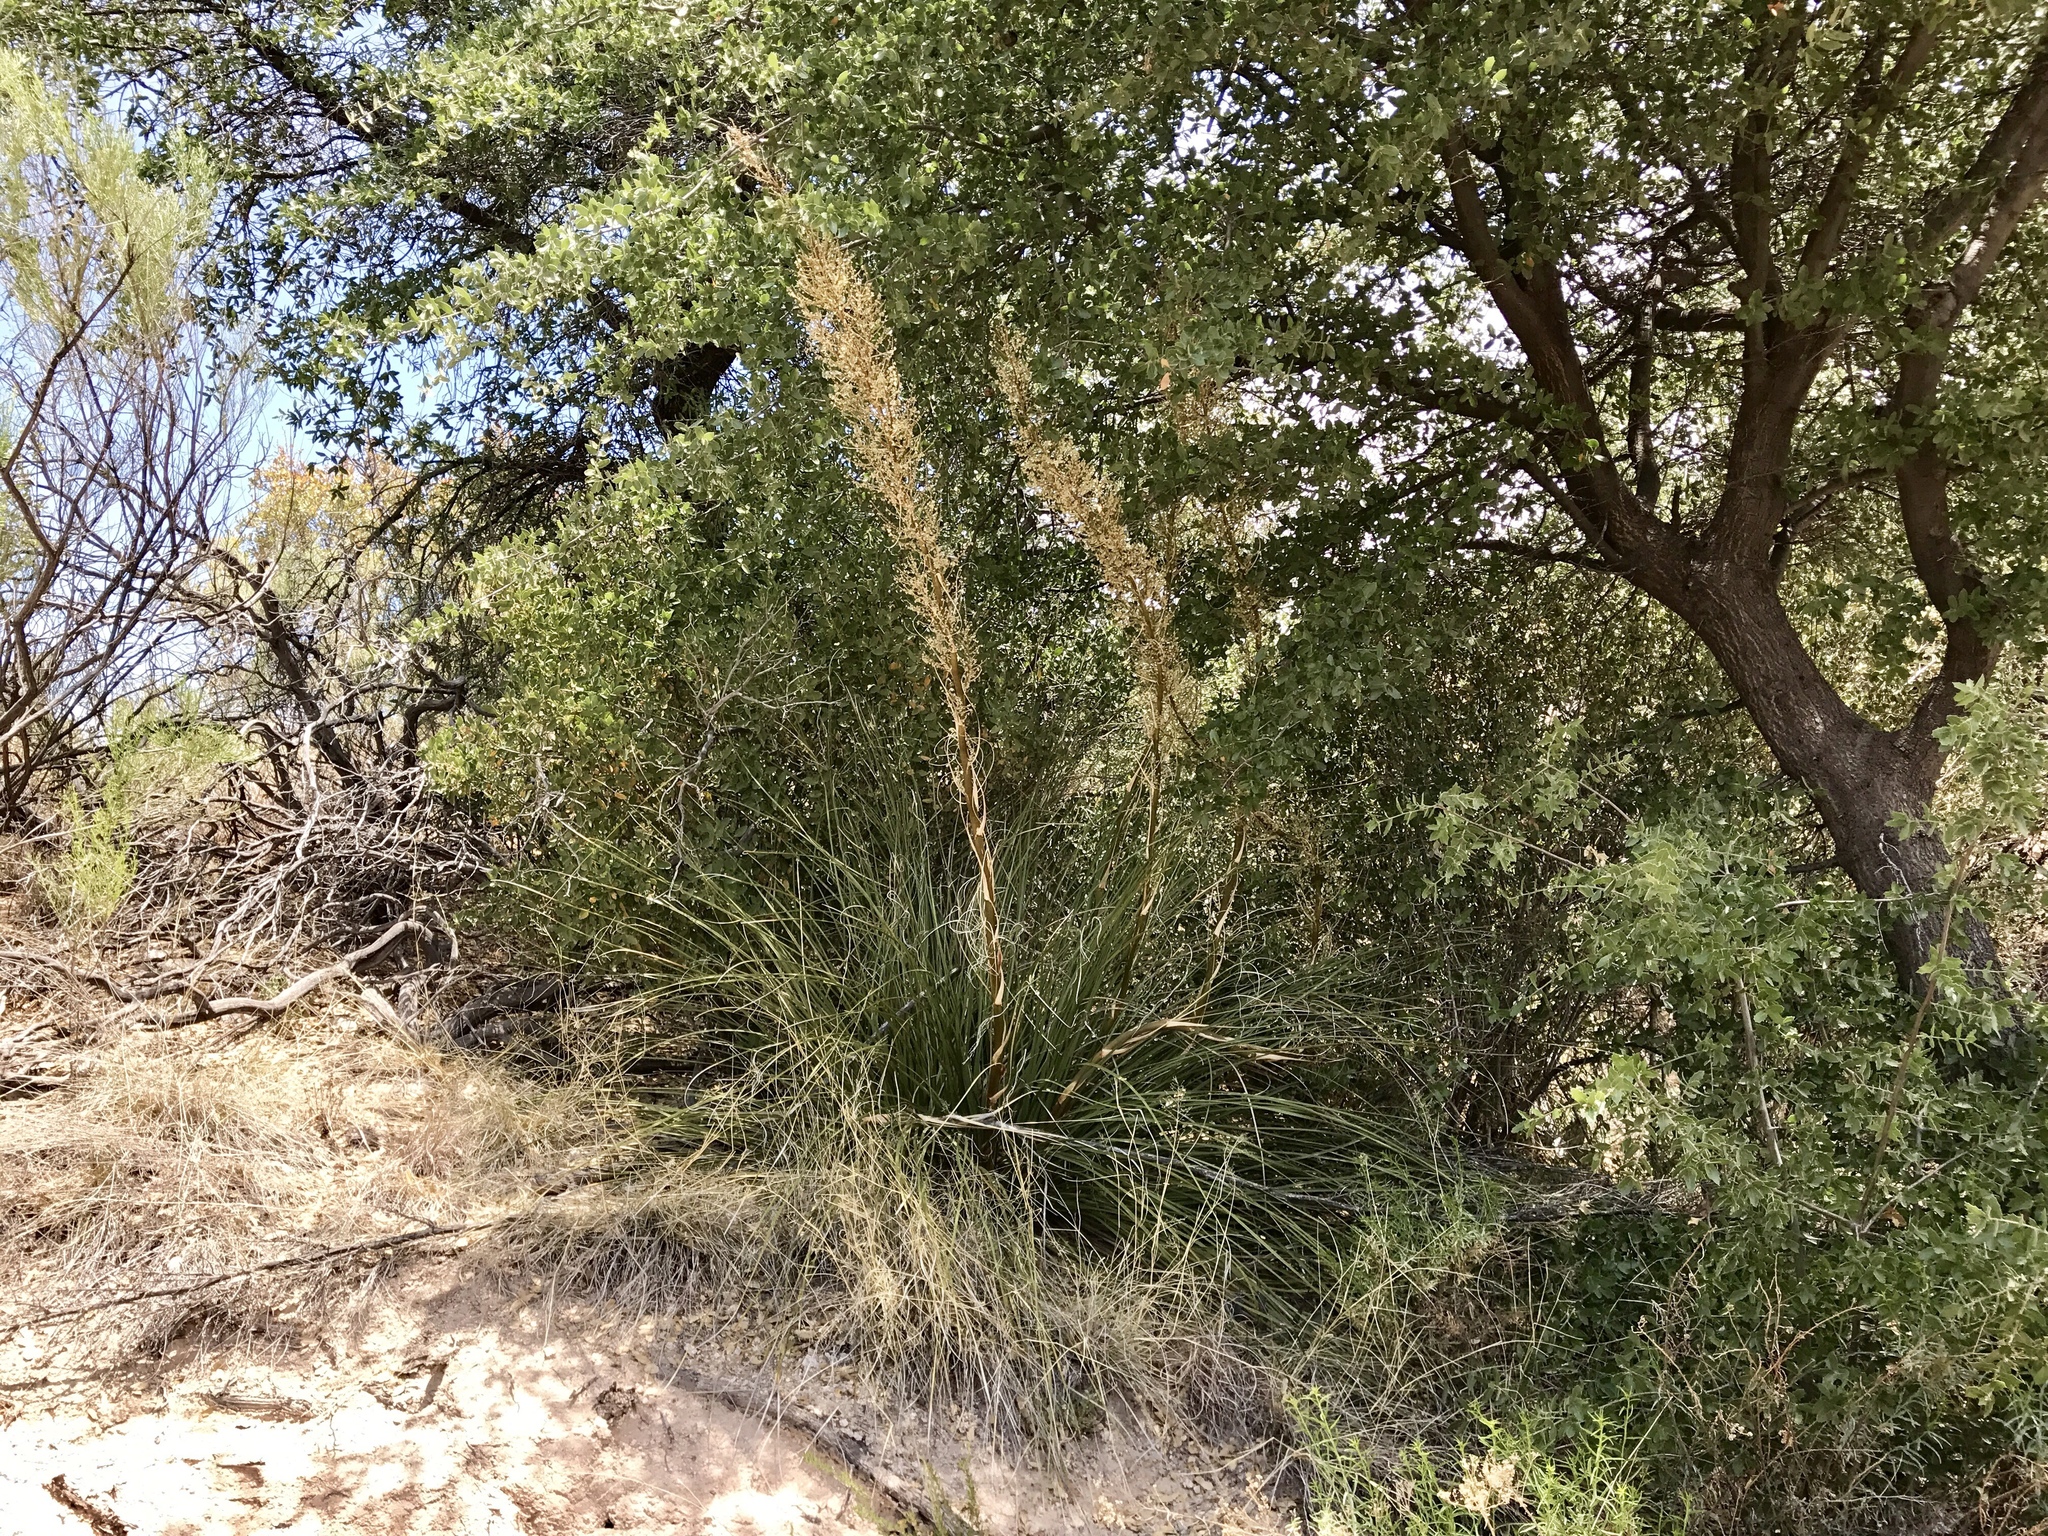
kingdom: Plantae
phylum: Tracheophyta
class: Liliopsida
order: Asparagales
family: Asparagaceae
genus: Nolina
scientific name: Nolina microcarpa
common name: Bear-grass
